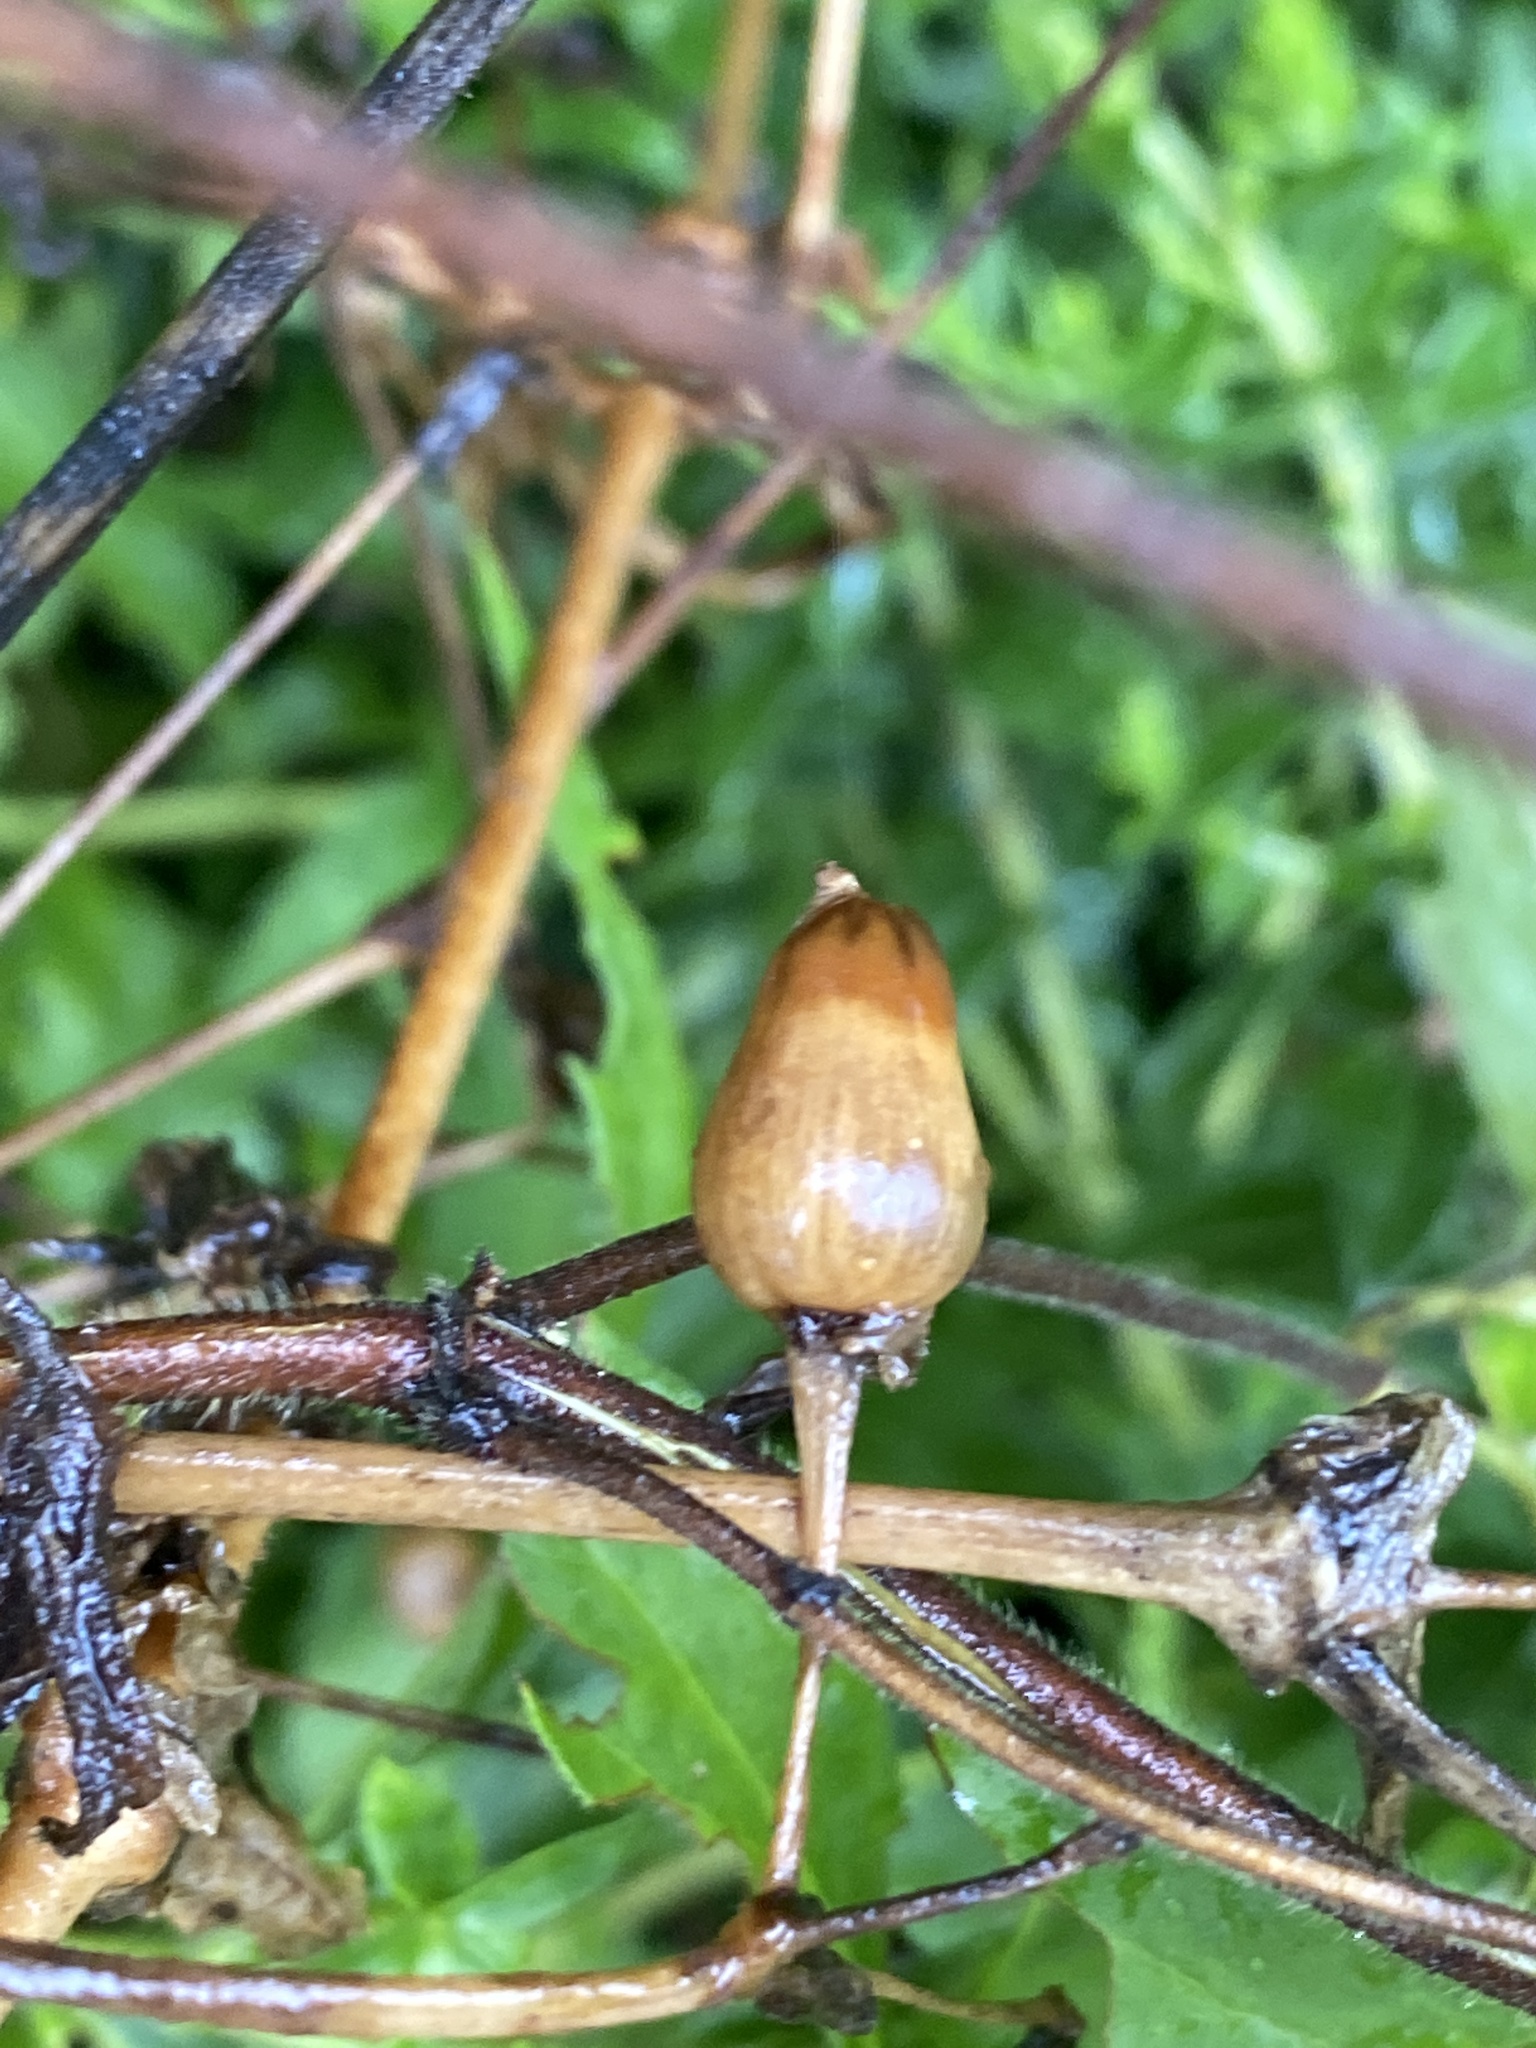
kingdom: Plantae
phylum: Tracheophyta
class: Magnoliopsida
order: Caryophyllales
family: Caryophyllaceae
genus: Silene
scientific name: Silene latifolia
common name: White campion
